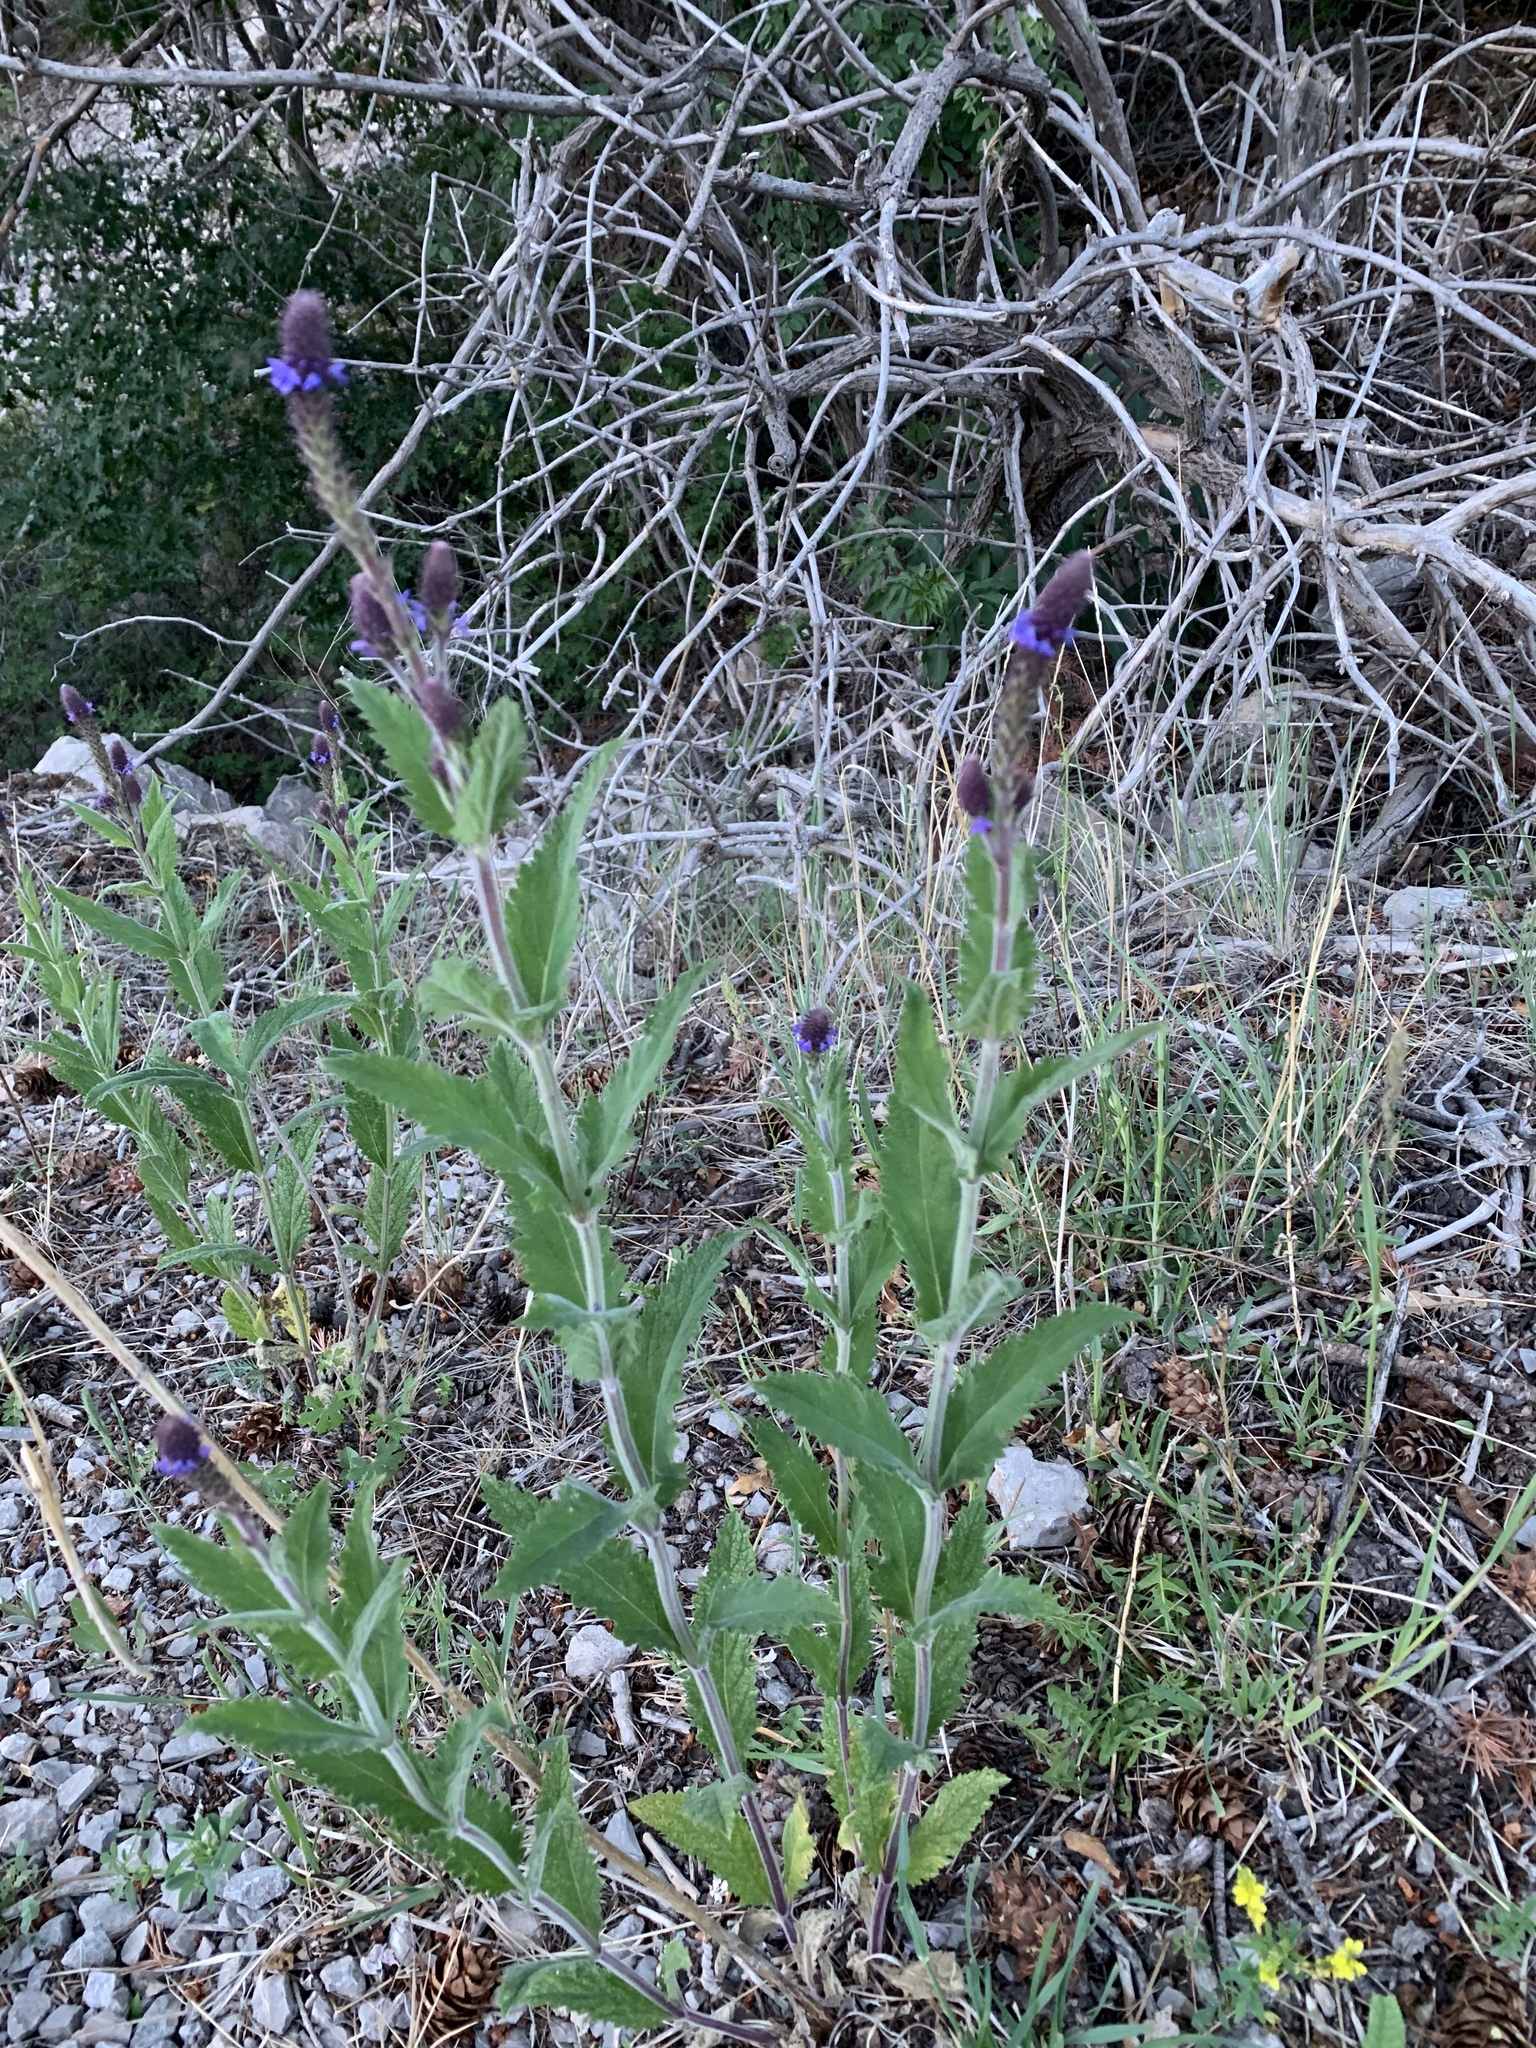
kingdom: Plantae
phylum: Tracheophyta
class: Magnoliopsida
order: Lamiales
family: Verbenaceae
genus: Verbena
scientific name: Verbena macdougalii
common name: New mexico vervain
